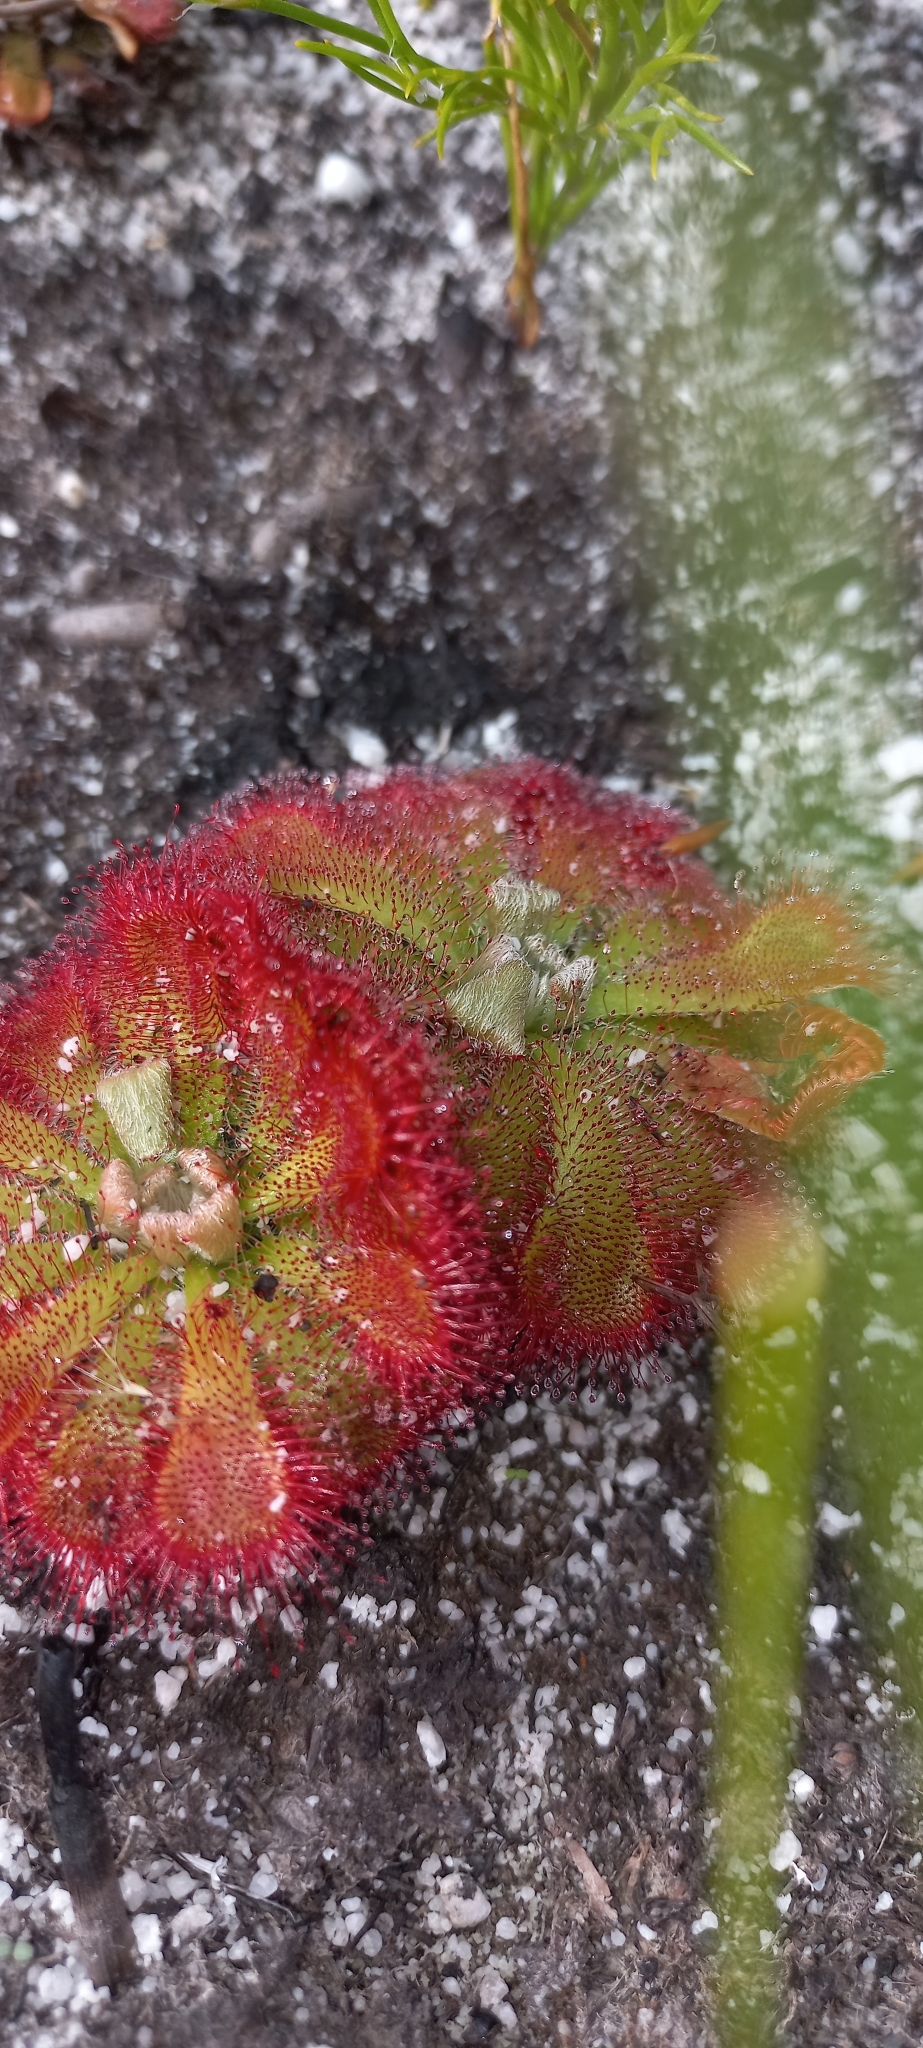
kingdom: Plantae
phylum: Tracheophyta
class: Magnoliopsida
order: Caryophyllales
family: Droseraceae
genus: Drosera
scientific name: Drosera aliciae
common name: Alice sundew
